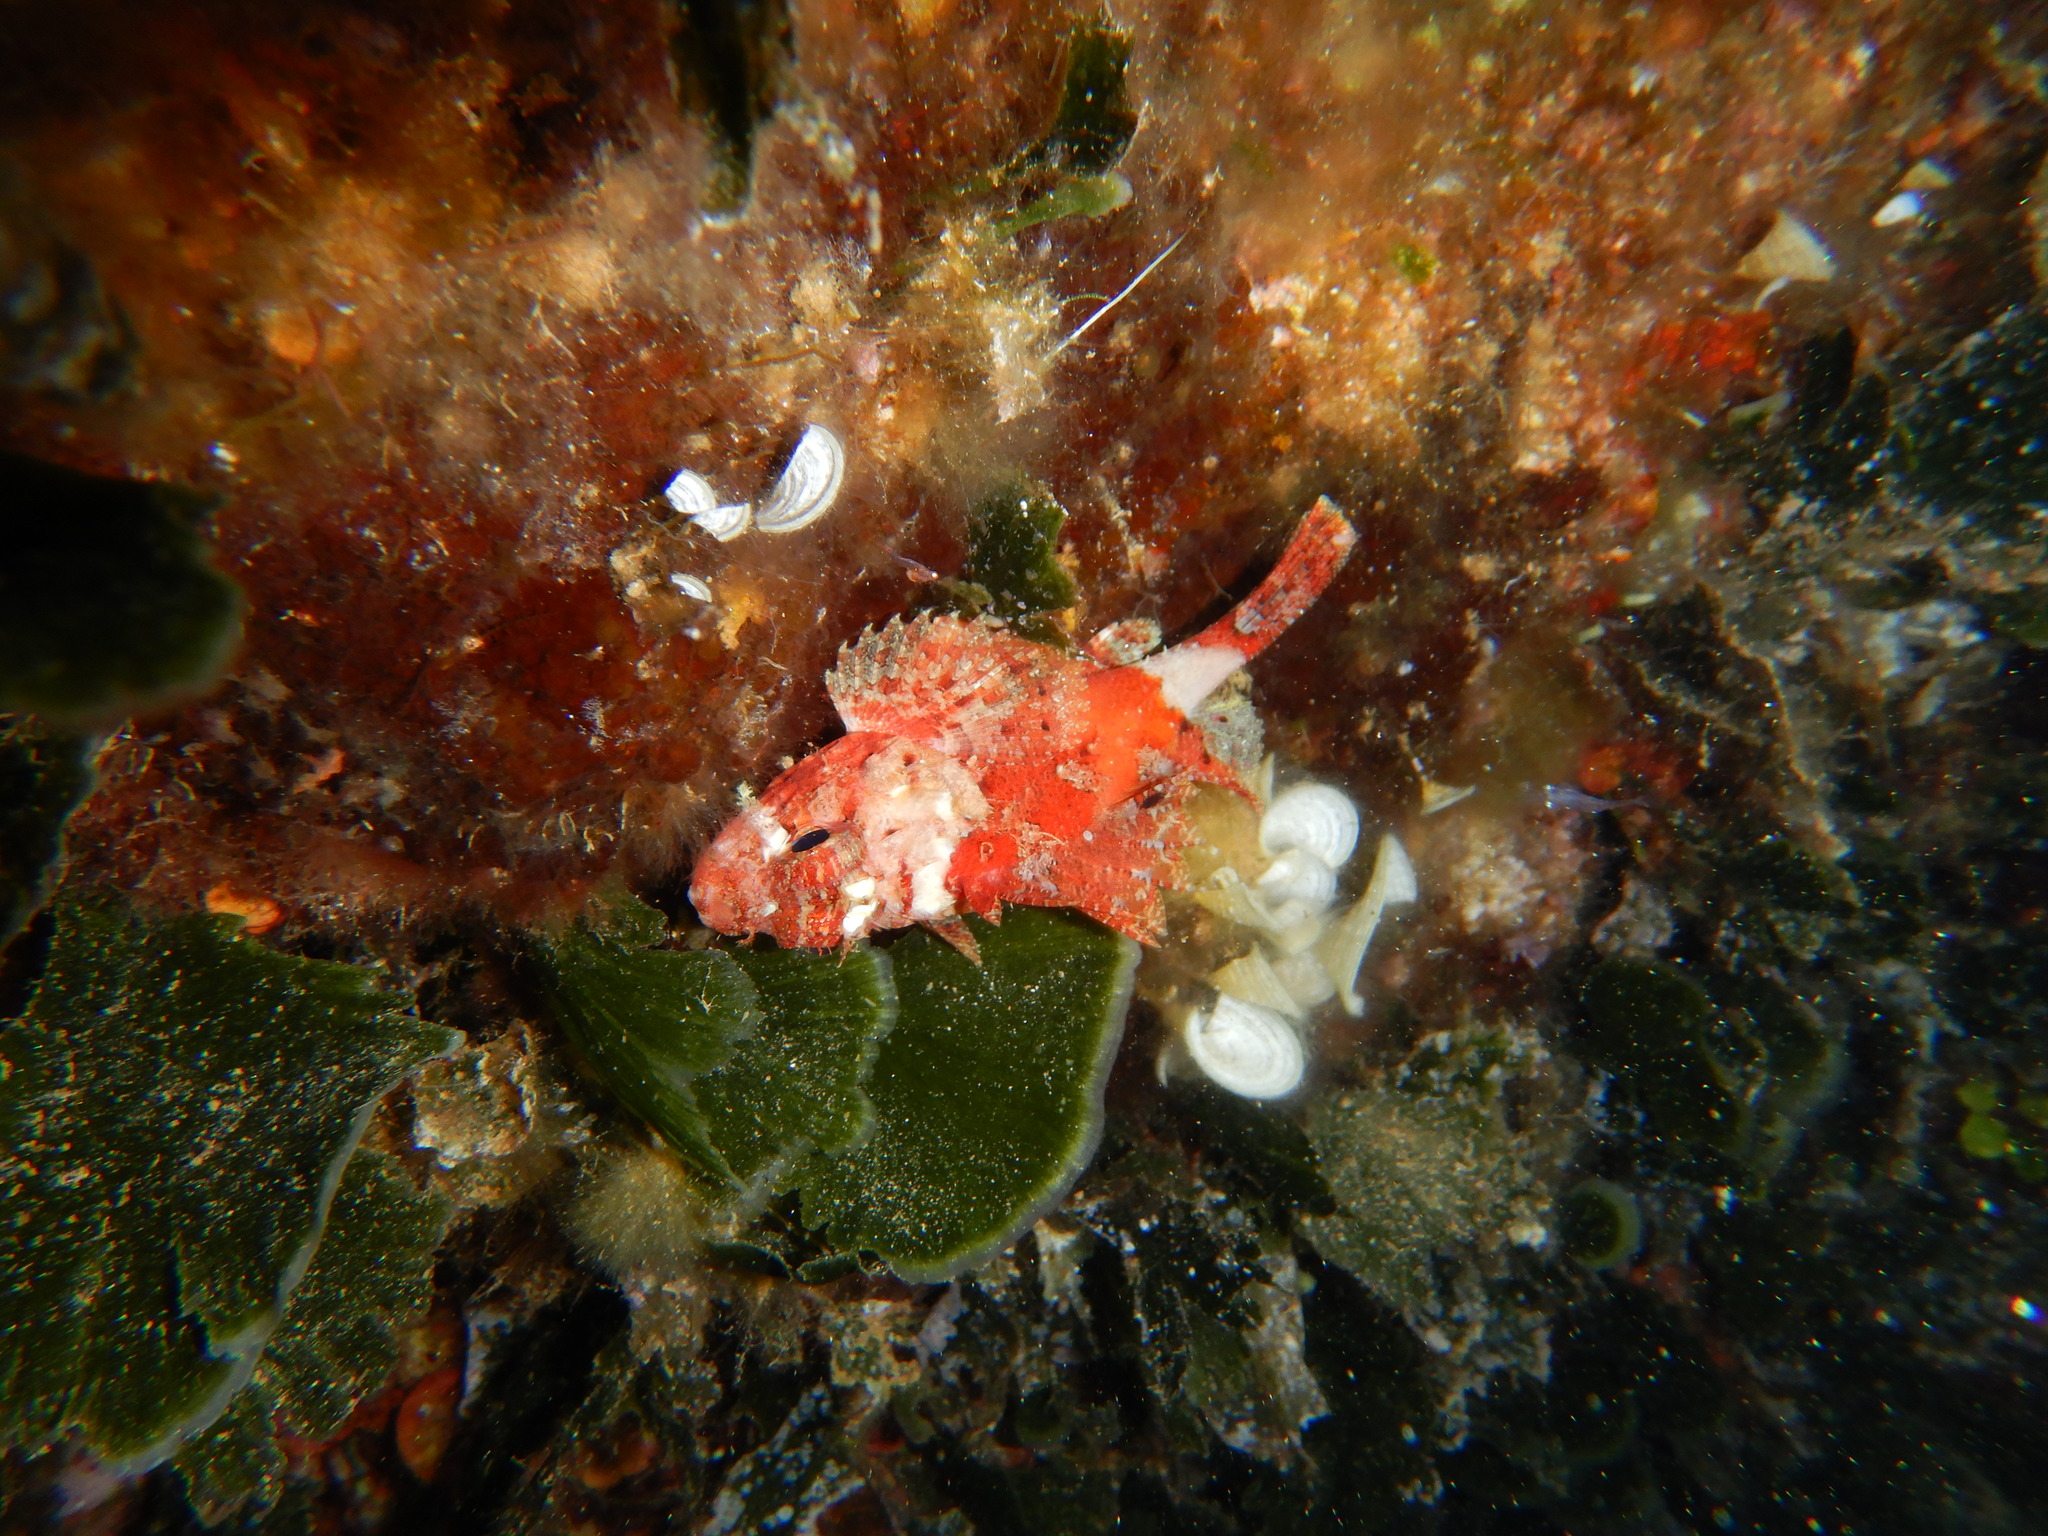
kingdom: Animalia
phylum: Chordata
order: Scorpaeniformes
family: Scorpaenidae
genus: Scorpaena
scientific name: Scorpaena notata
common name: Small red scorpionfish
